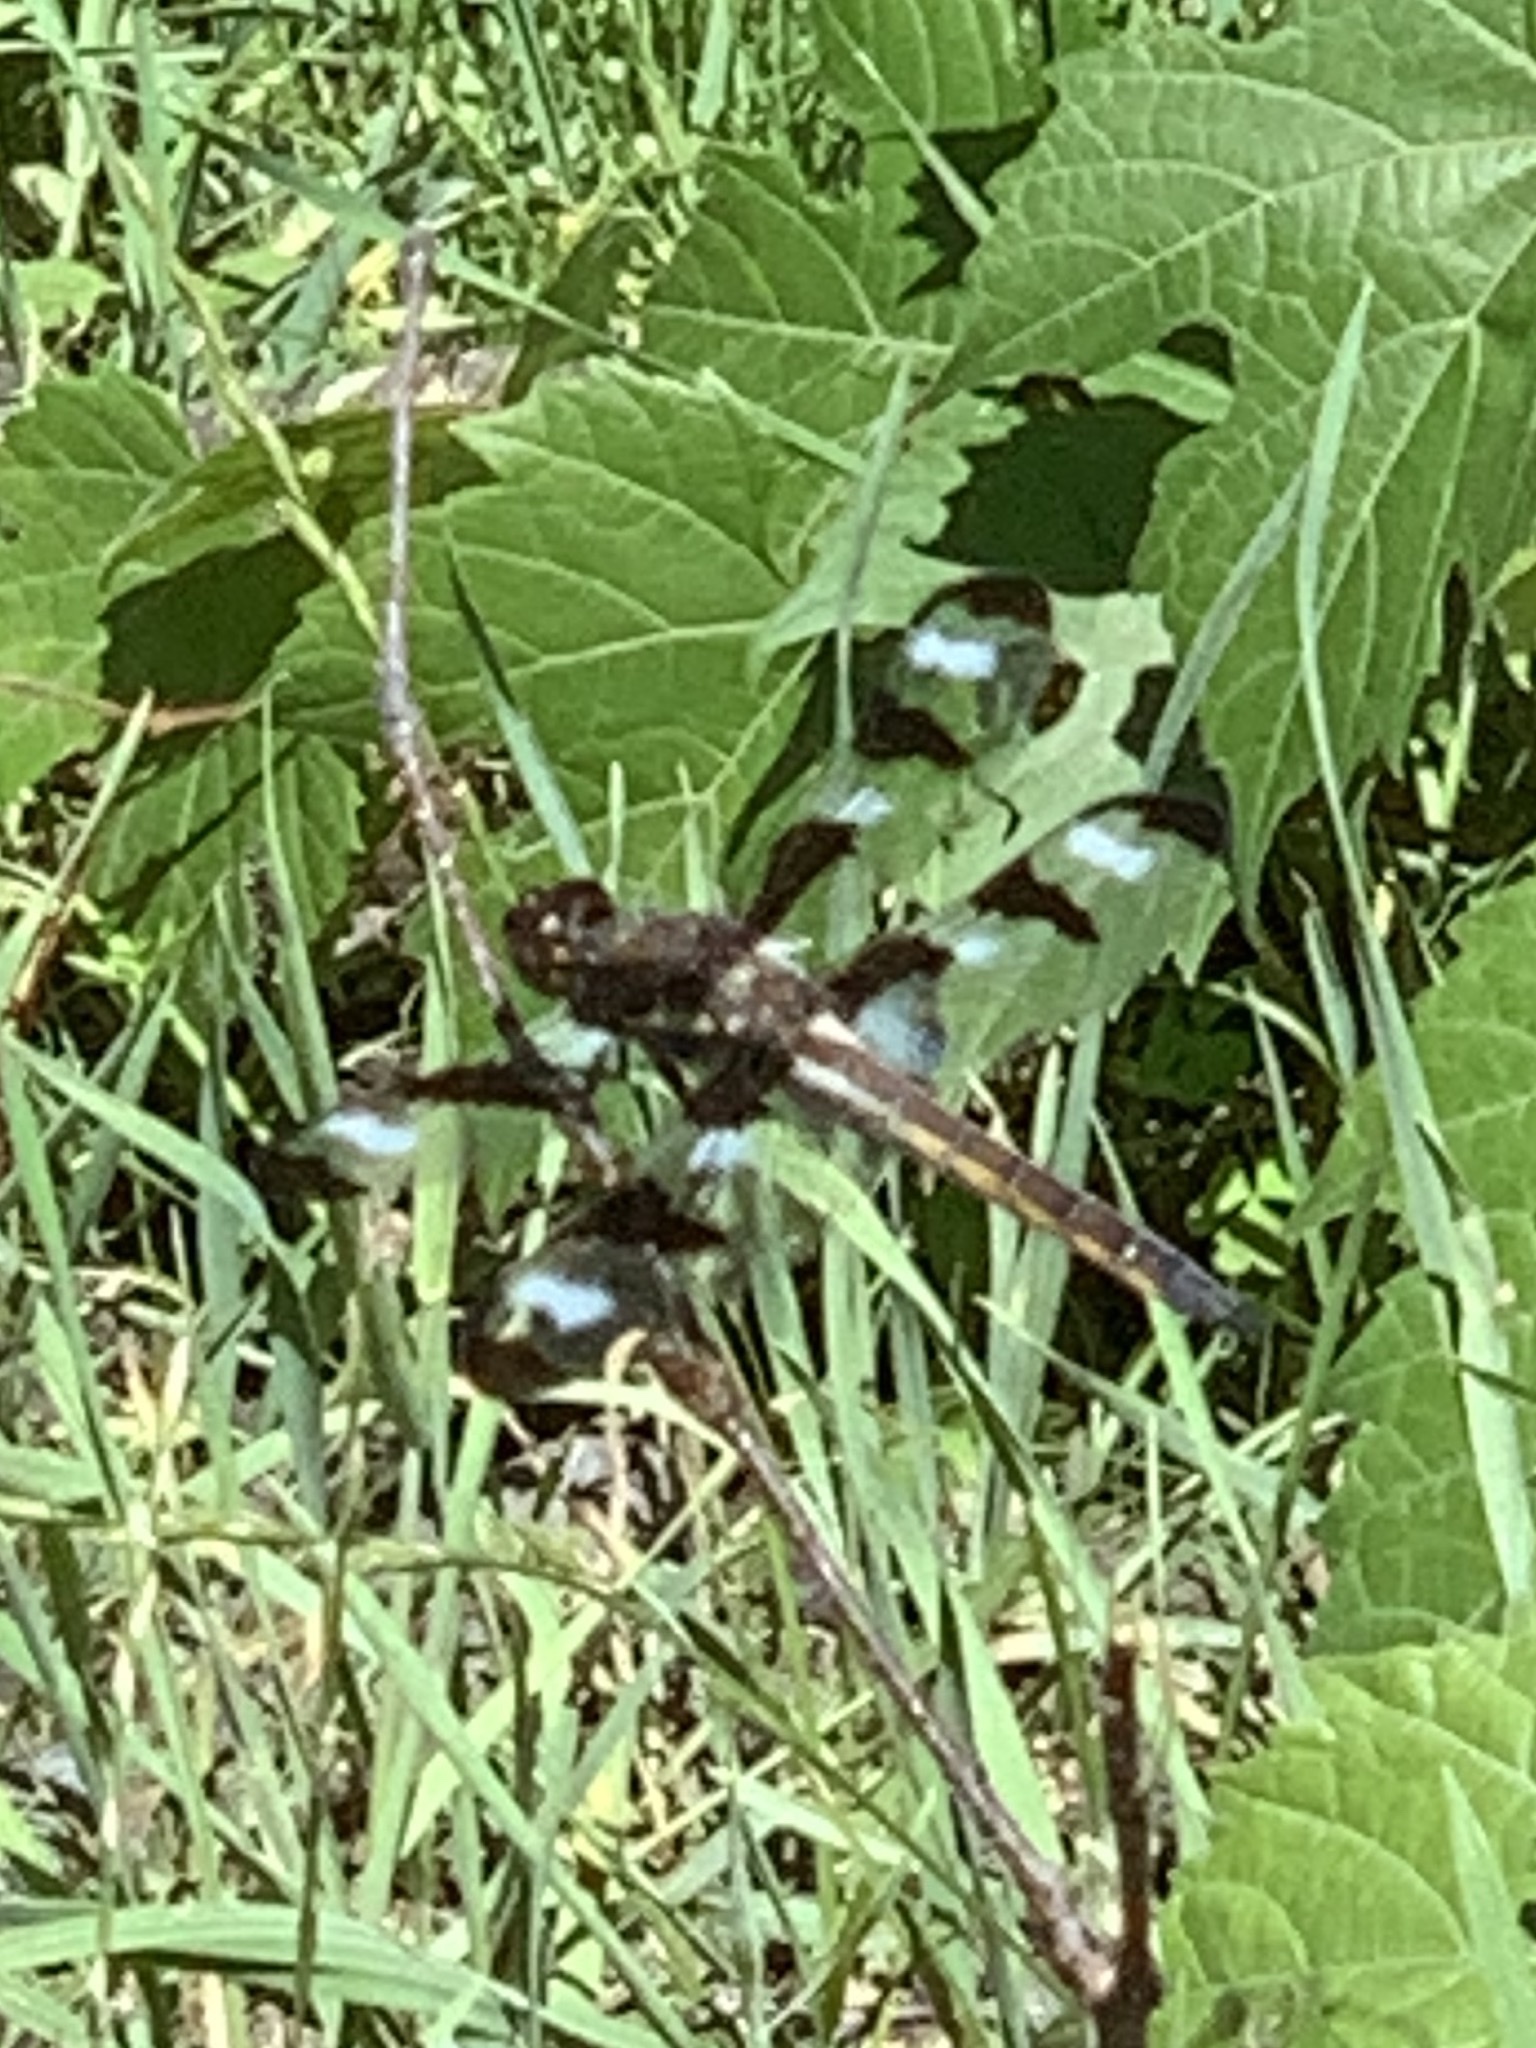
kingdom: Animalia
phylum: Arthropoda
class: Insecta
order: Odonata
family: Libellulidae
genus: Libellula
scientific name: Libellula pulchella
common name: Twelve-spotted skimmer
